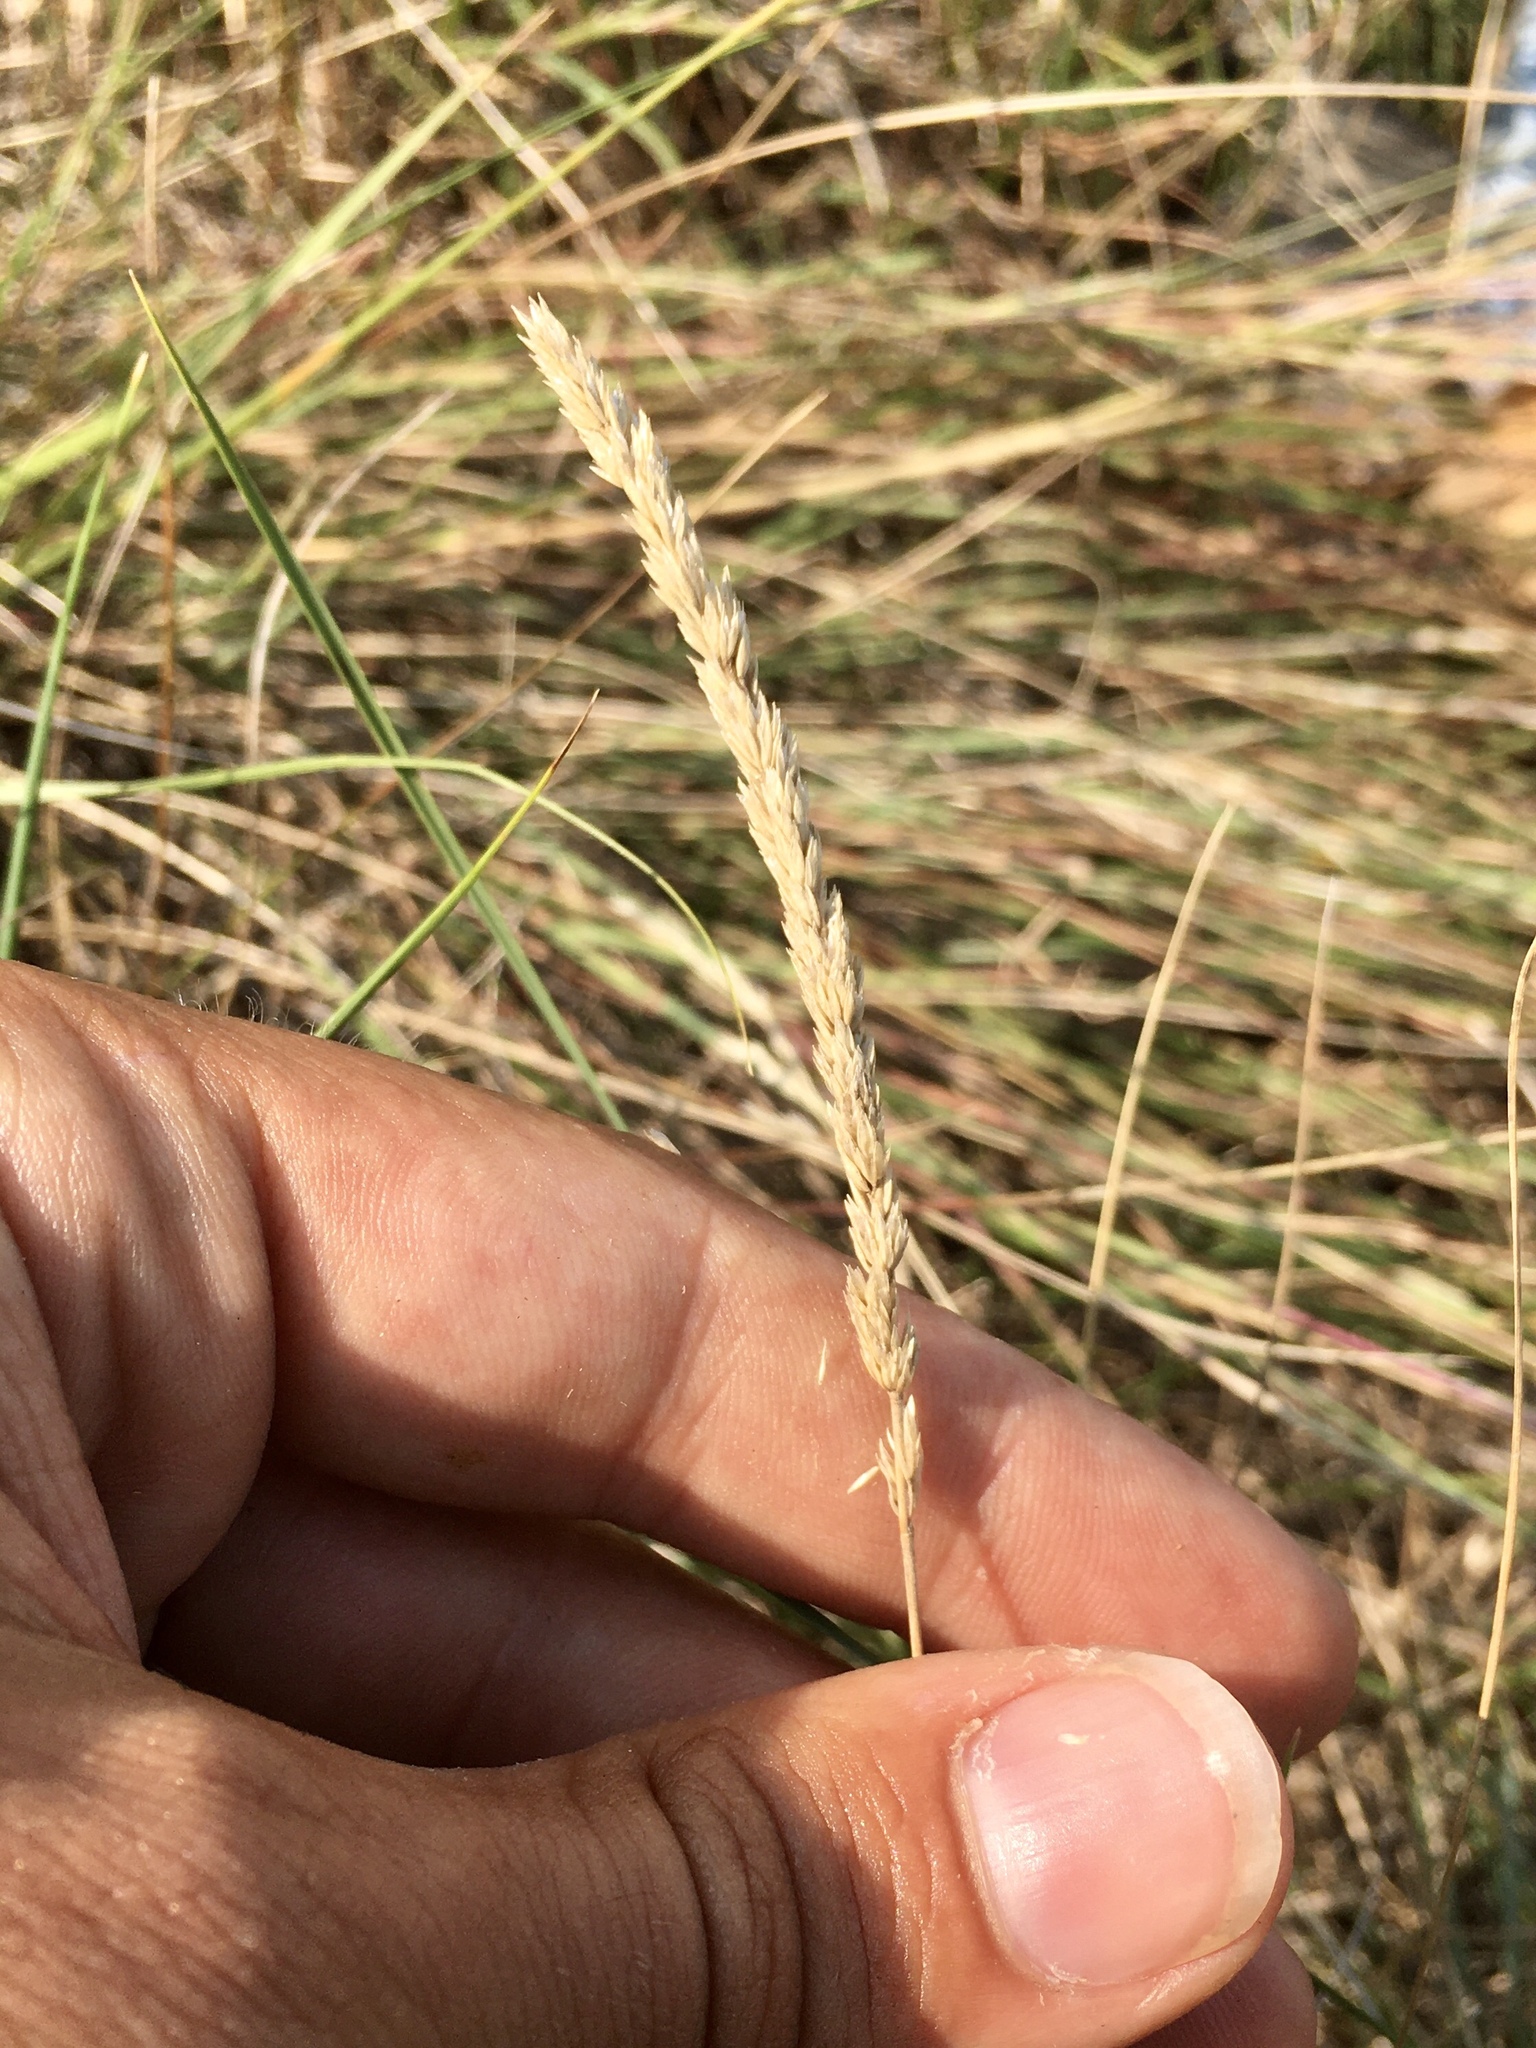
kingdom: Plantae
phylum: Tracheophyta
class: Liliopsida
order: Poales
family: Poaceae
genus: Koeleria
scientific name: Koeleria macrantha
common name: Crested hair-grass
